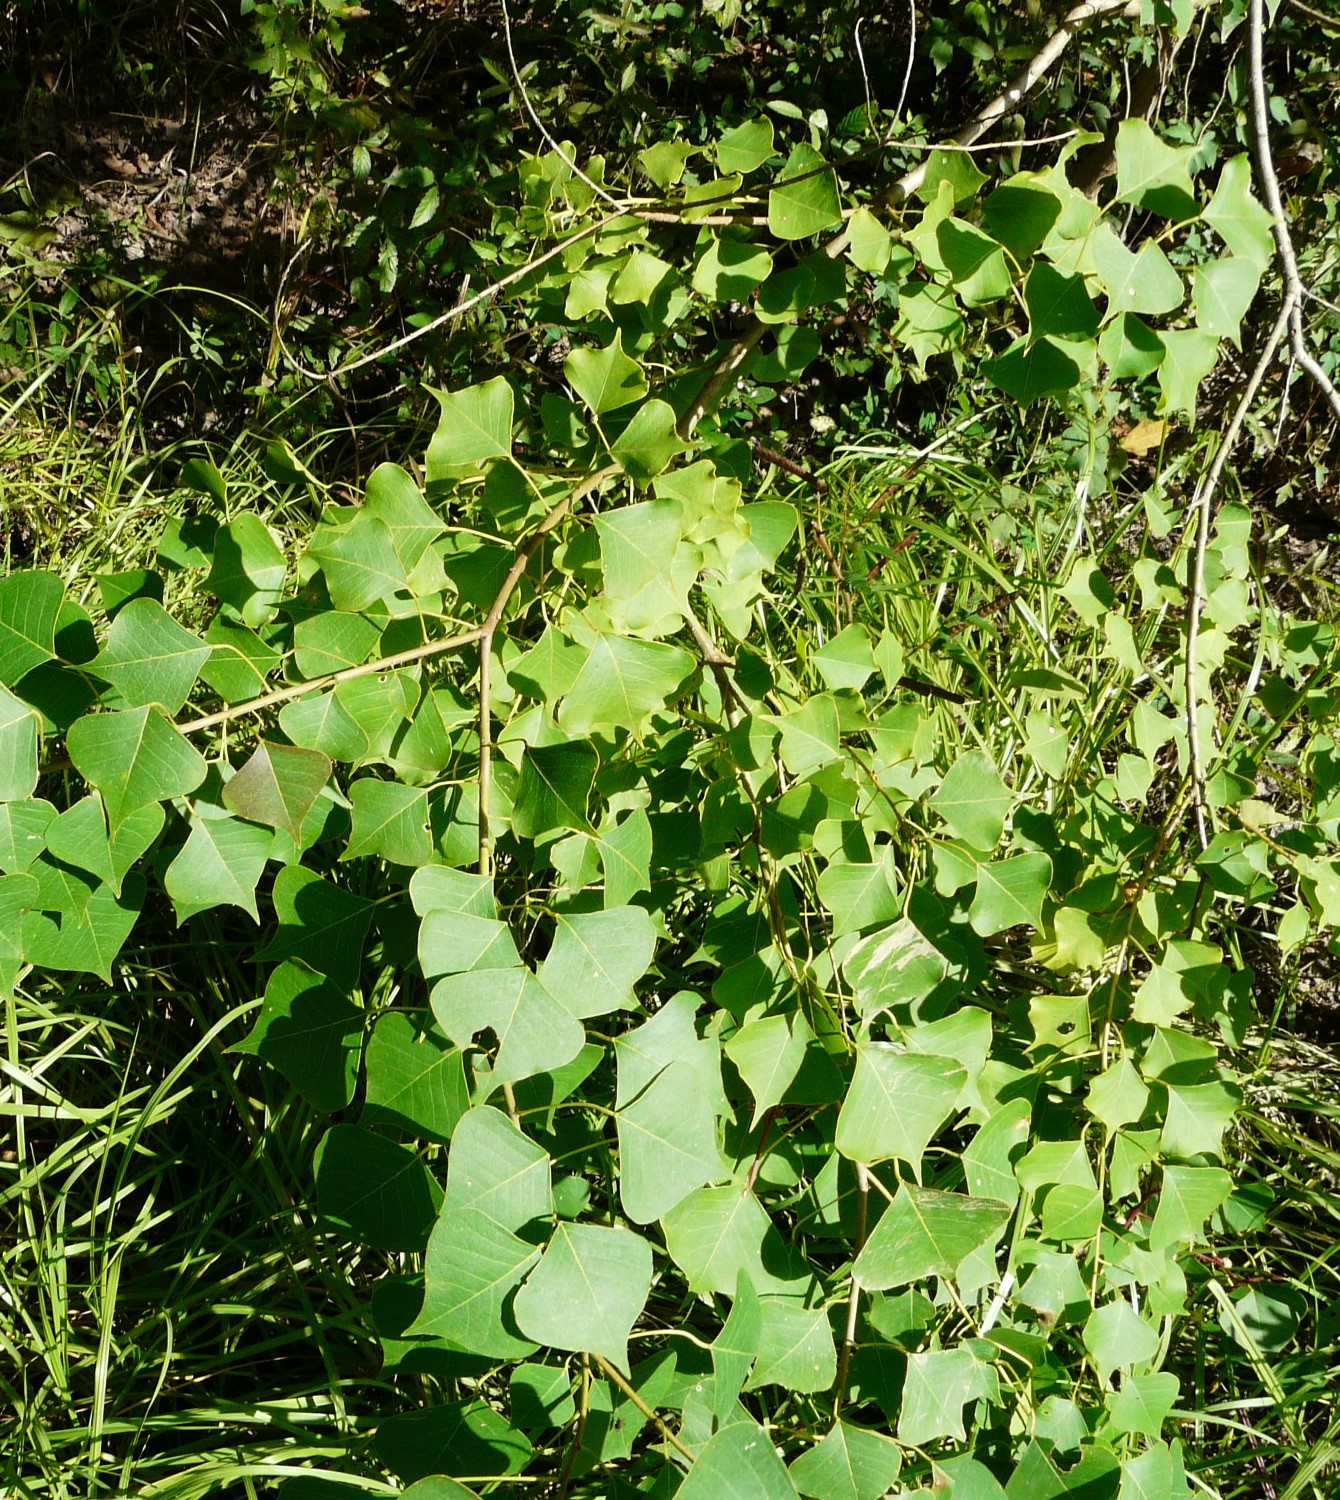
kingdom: Plantae
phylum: Tracheophyta
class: Magnoliopsida
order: Malpighiales
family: Euphorbiaceae
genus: Triadica
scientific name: Triadica sebifera
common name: Chinese tallow
